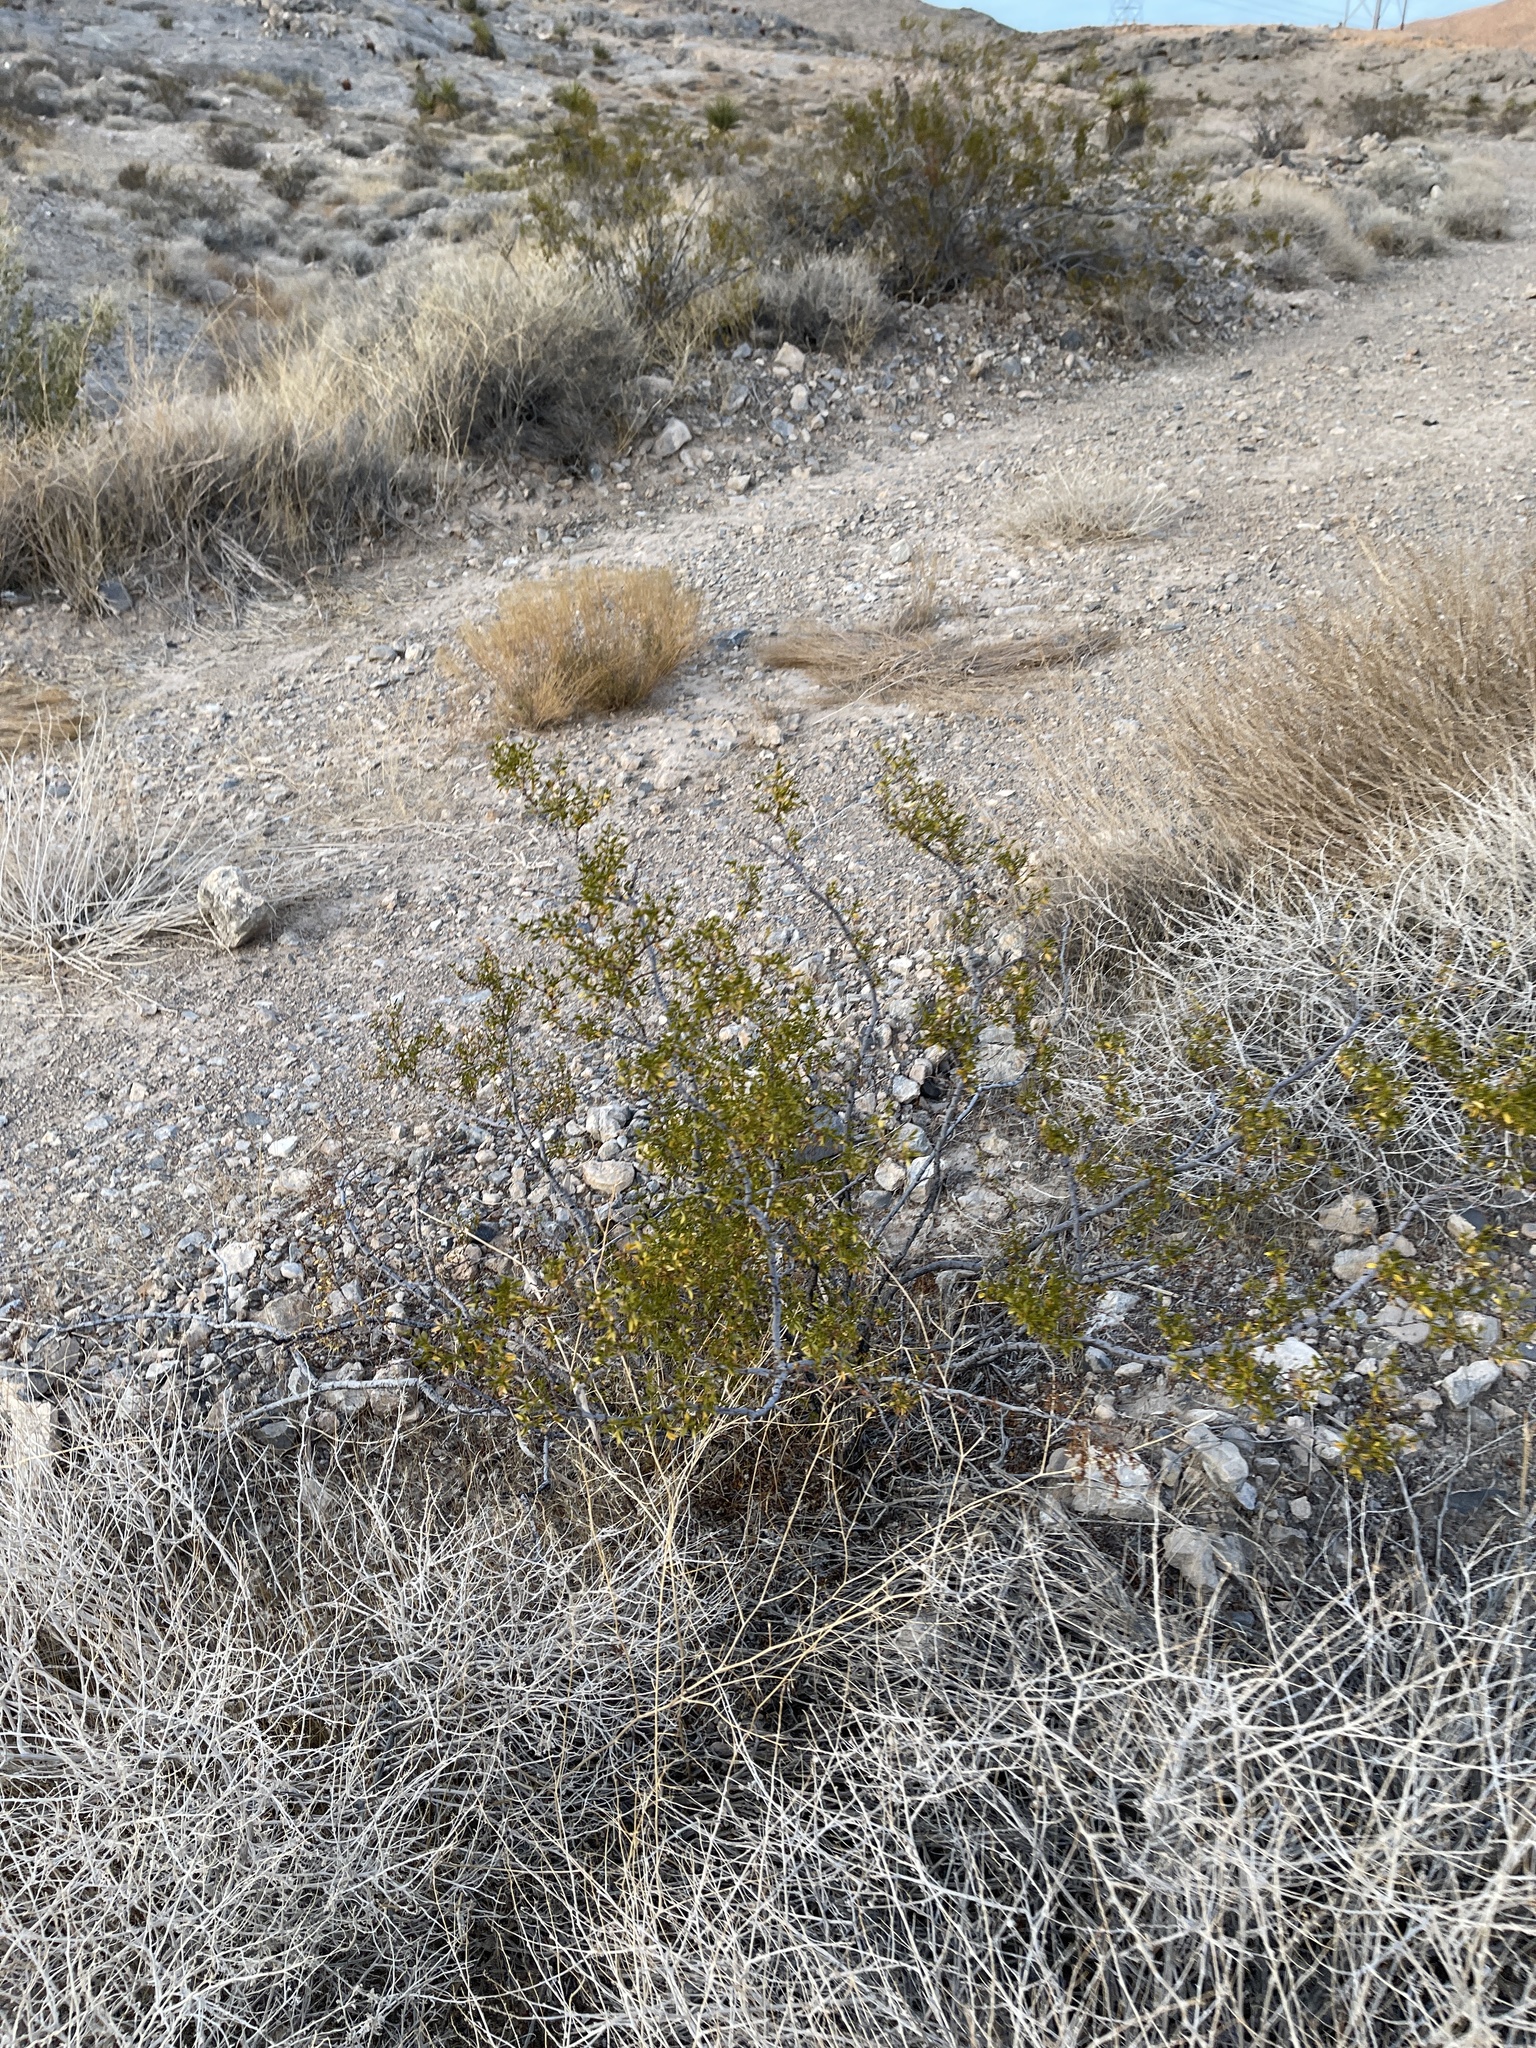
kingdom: Plantae
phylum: Tracheophyta
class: Magnoliopsida
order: Zygophyllales
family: Zygophyllaceae
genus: Larrea
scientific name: Larrea tridentata
